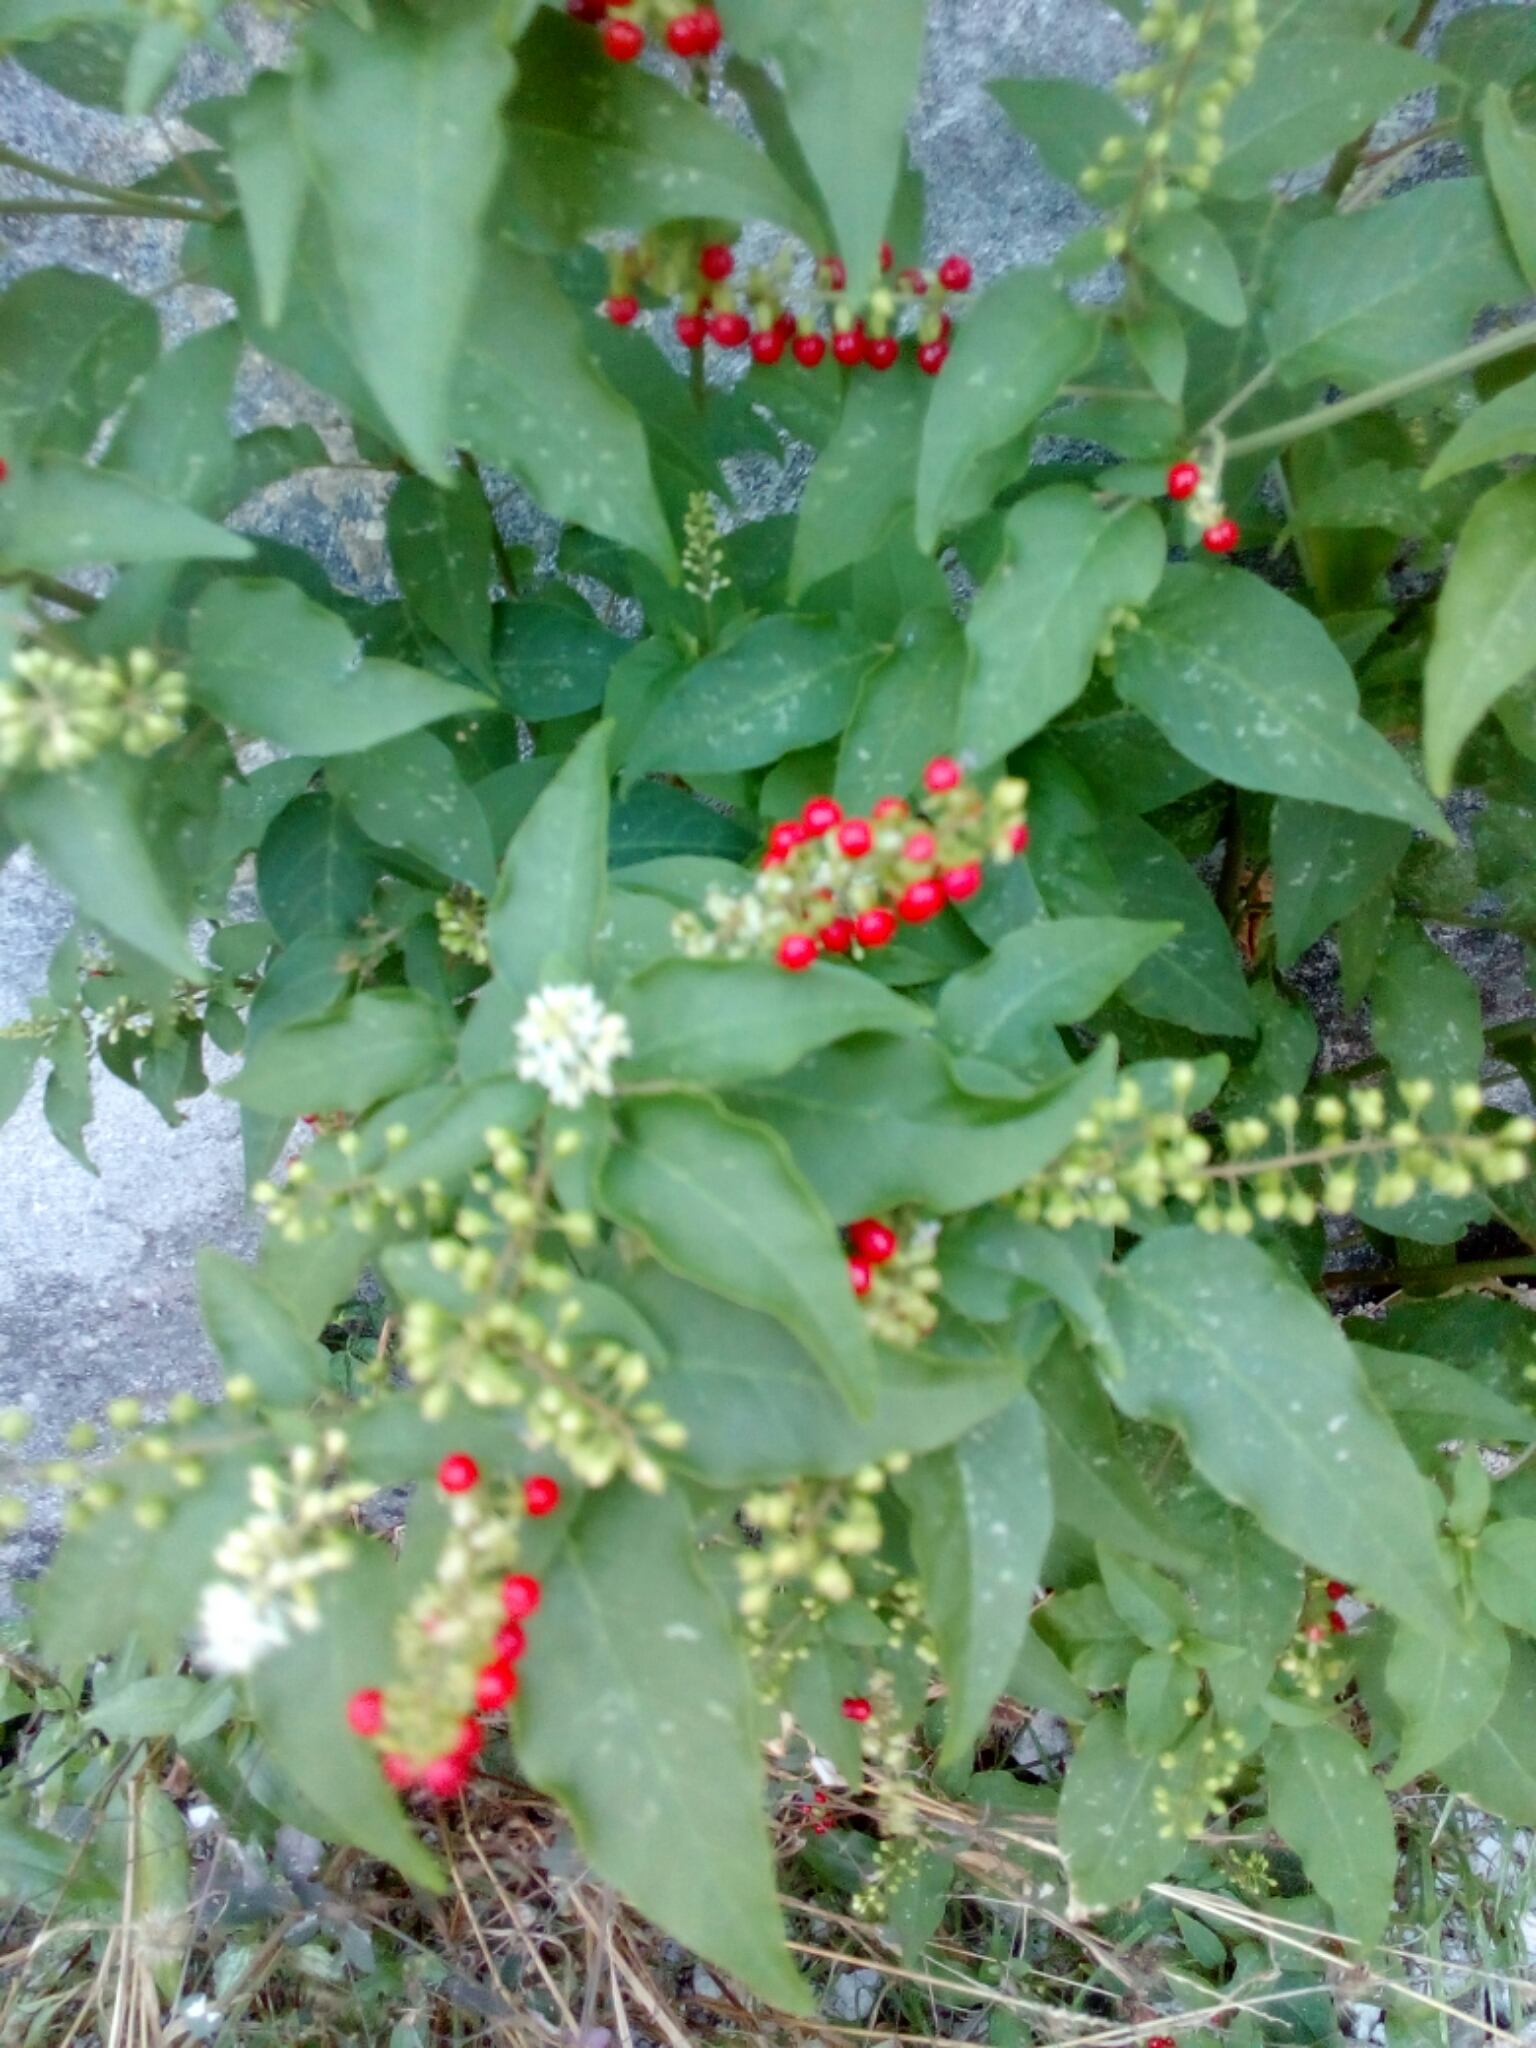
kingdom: Plantae
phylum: Tracheophyta
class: Magnoliopsida
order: Caryophyllales
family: Phytolaccaceae
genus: Rivina
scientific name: Rivina humilis
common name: Rougeplant
